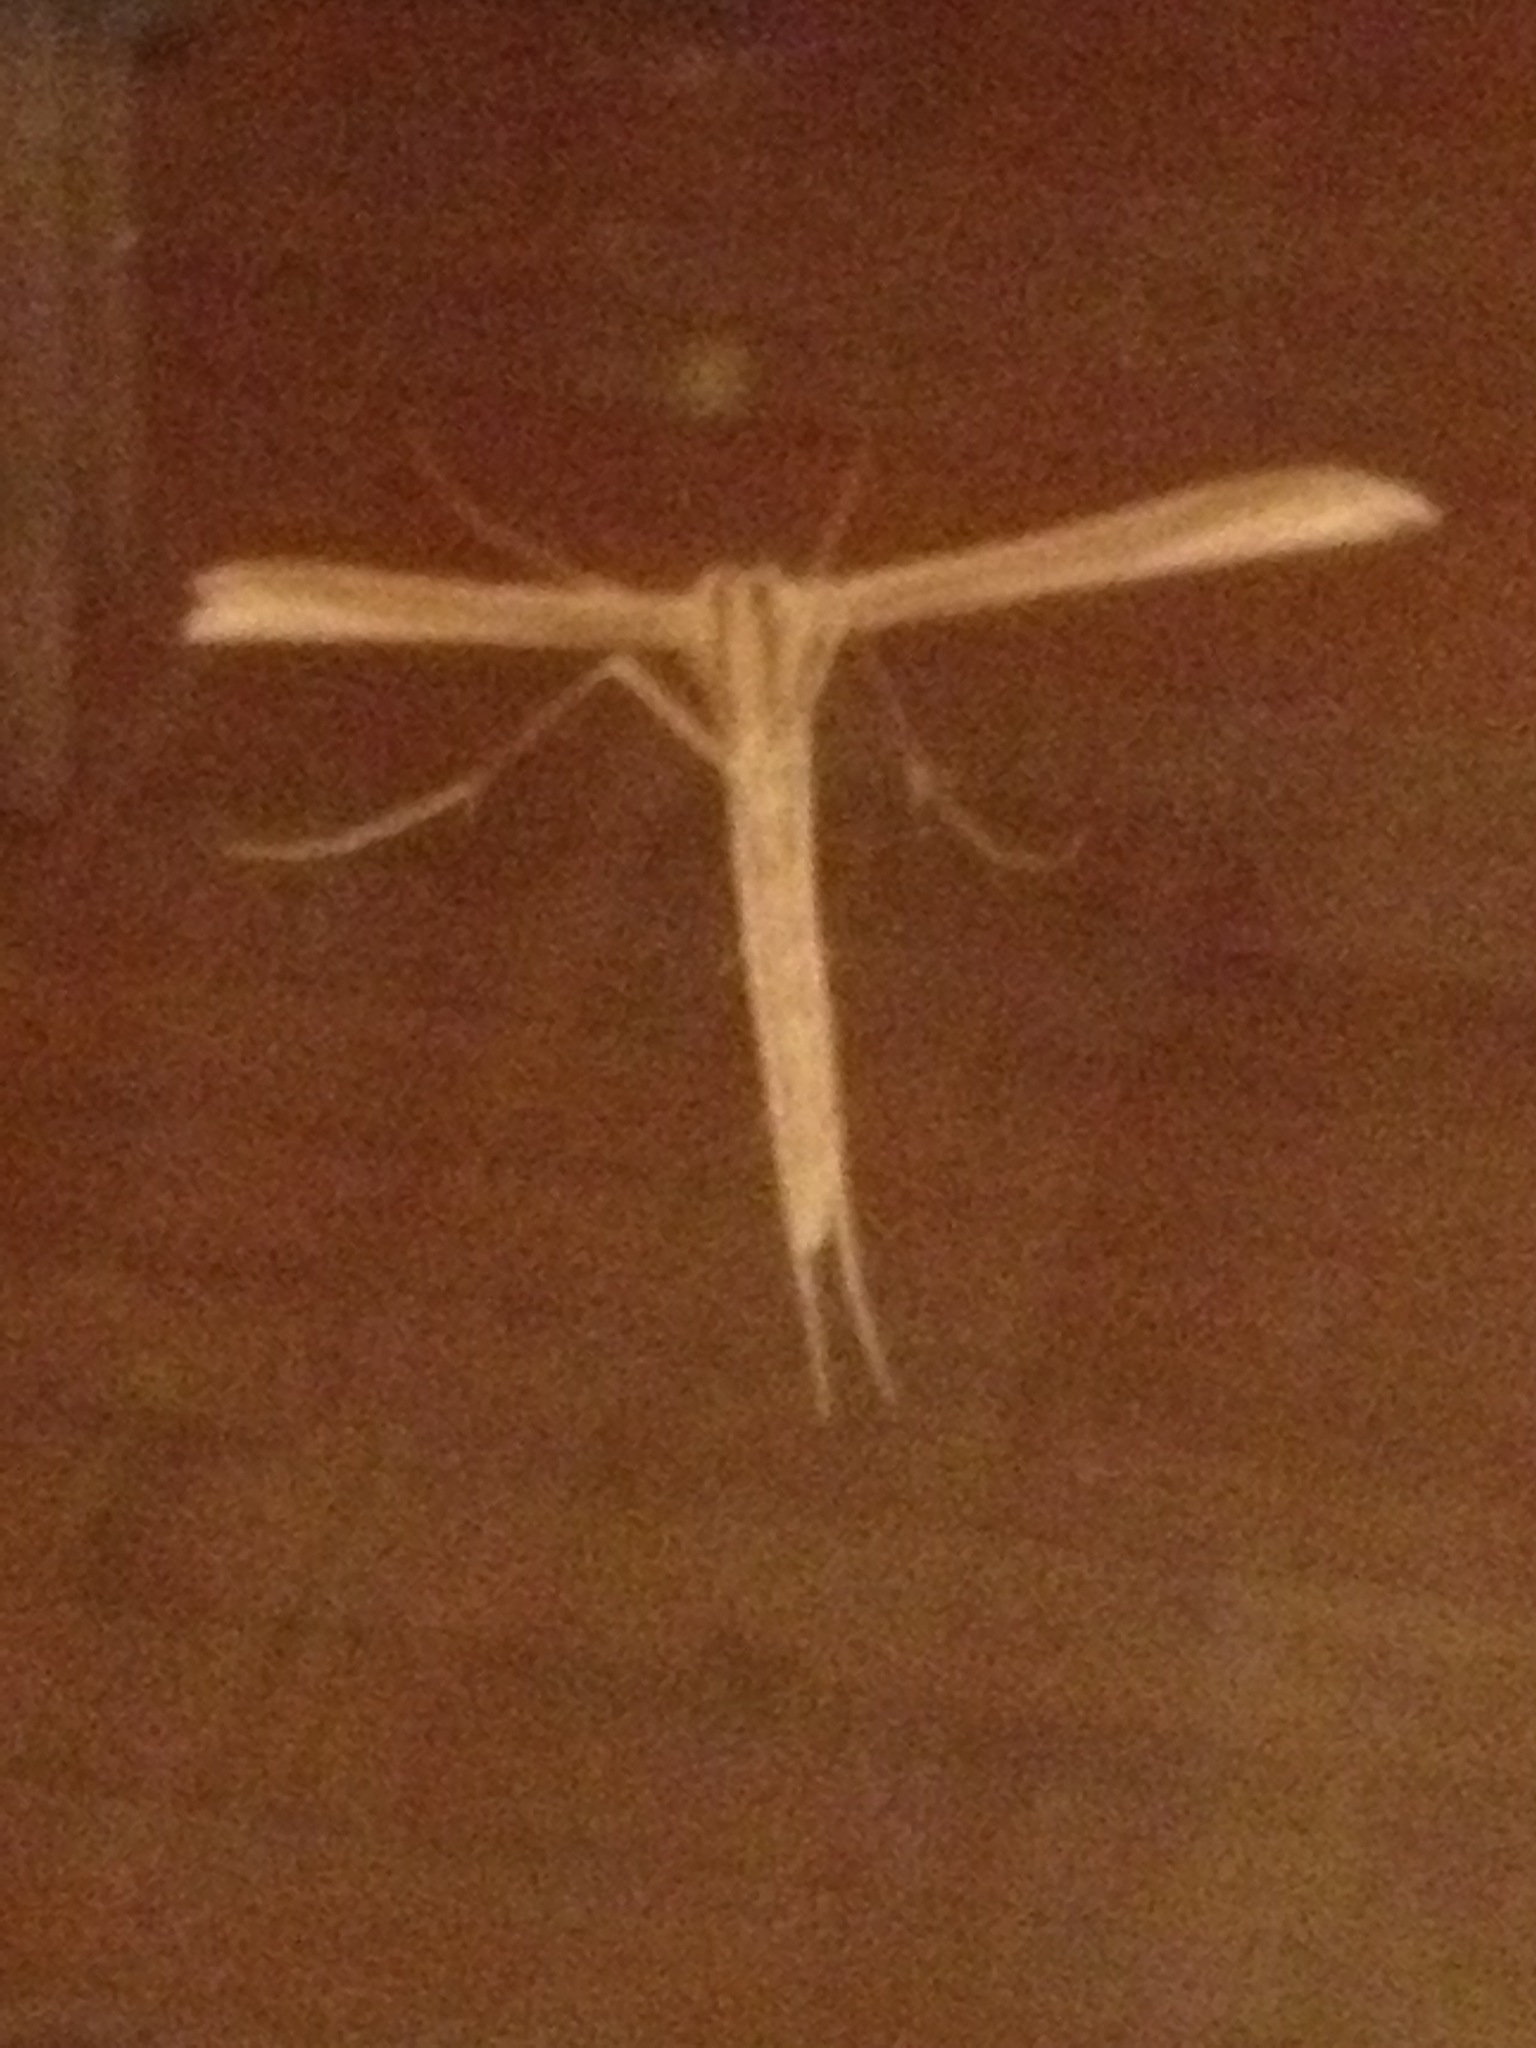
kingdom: Animalia
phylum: Arthropoda
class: Insecta
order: Lepidoptera
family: Pterophoridae
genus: Hellinsia
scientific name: Hellinsia homodactylus
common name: Plain plume moth
